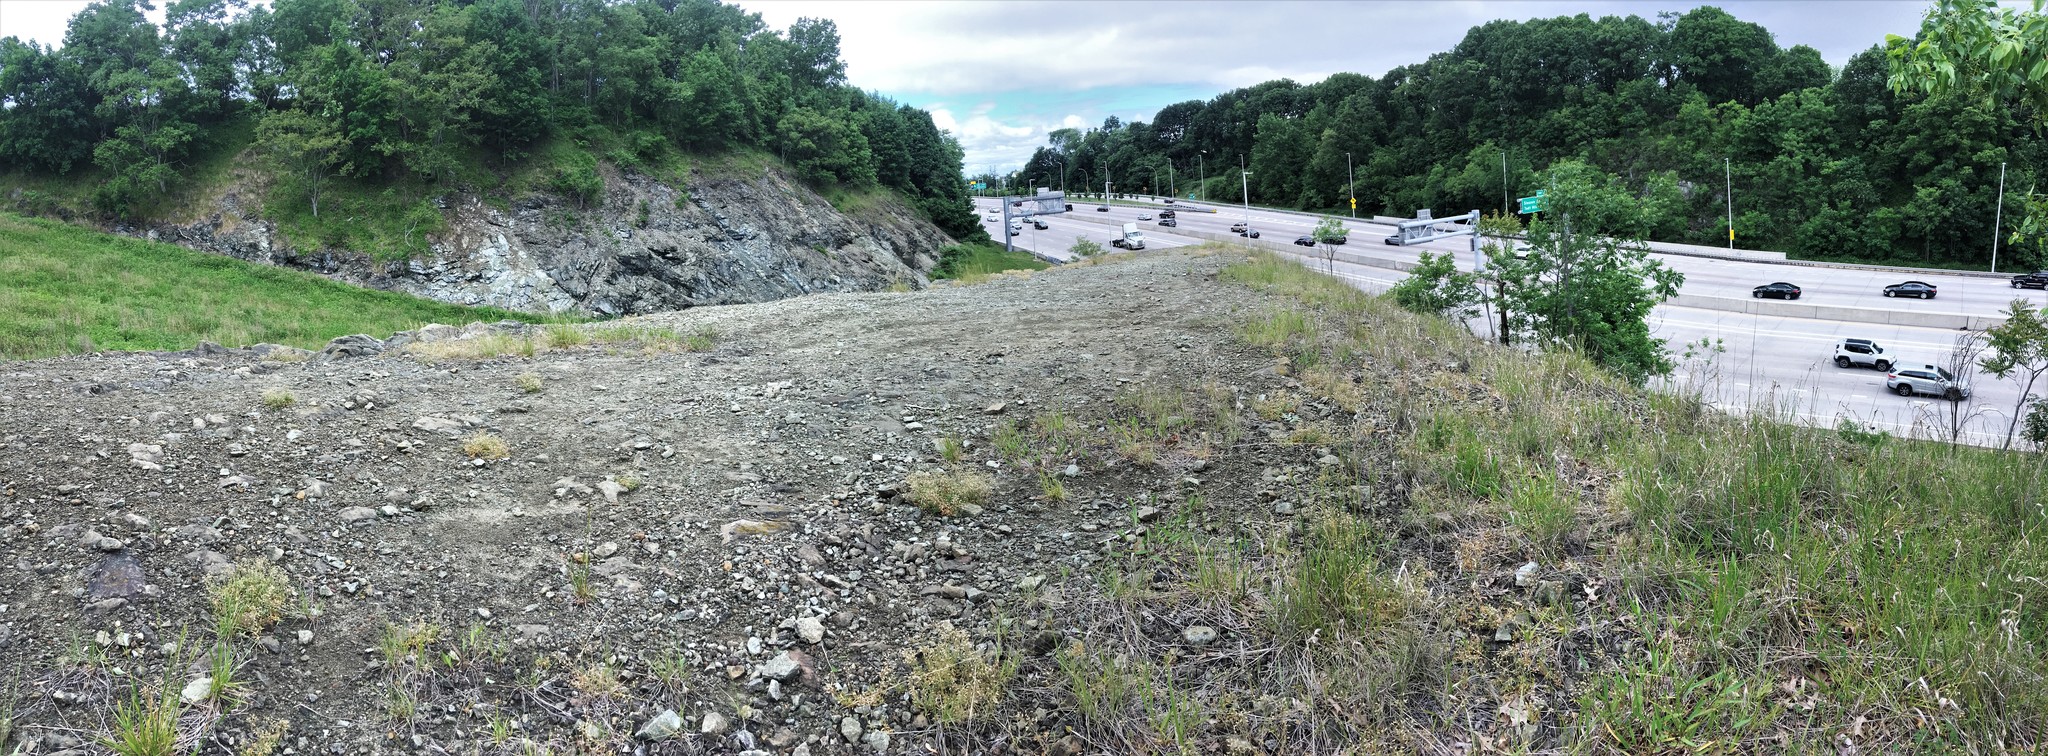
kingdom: Plantae
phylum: Tracheophyta
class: Magnoliopsida
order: Caryophyllales
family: Caryophyllaceae
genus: Cerastium
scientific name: Cerastium arvense
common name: Field mouse-ear
